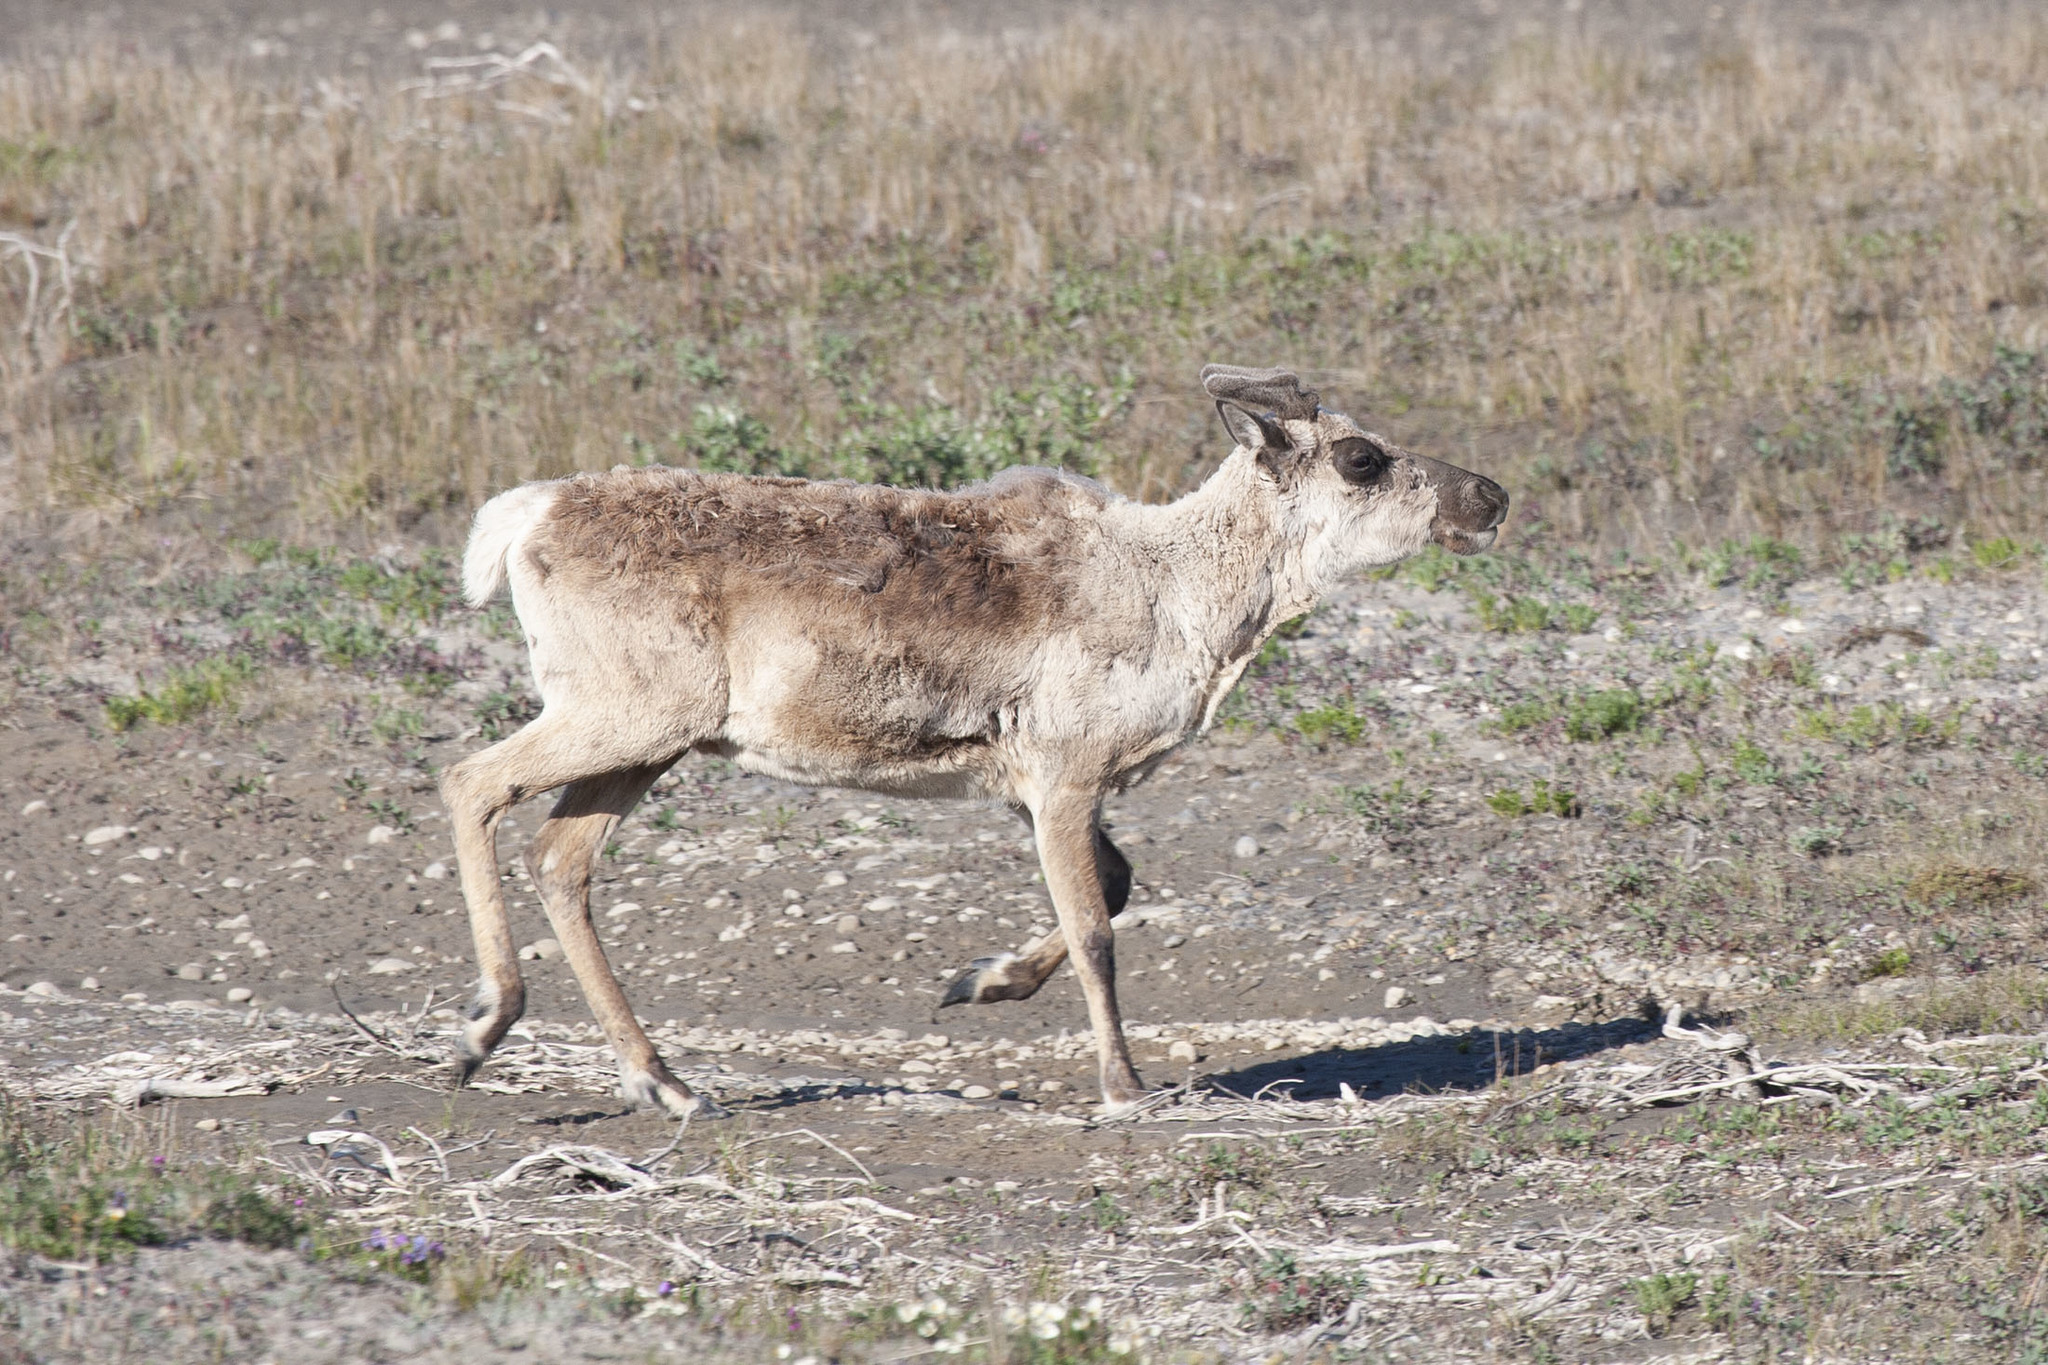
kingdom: Animalia
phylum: Chordata
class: Mammalia
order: Artiodactyla
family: Cervidae
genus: Rangifer
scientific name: Rangifer tarandus
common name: Reindeer
